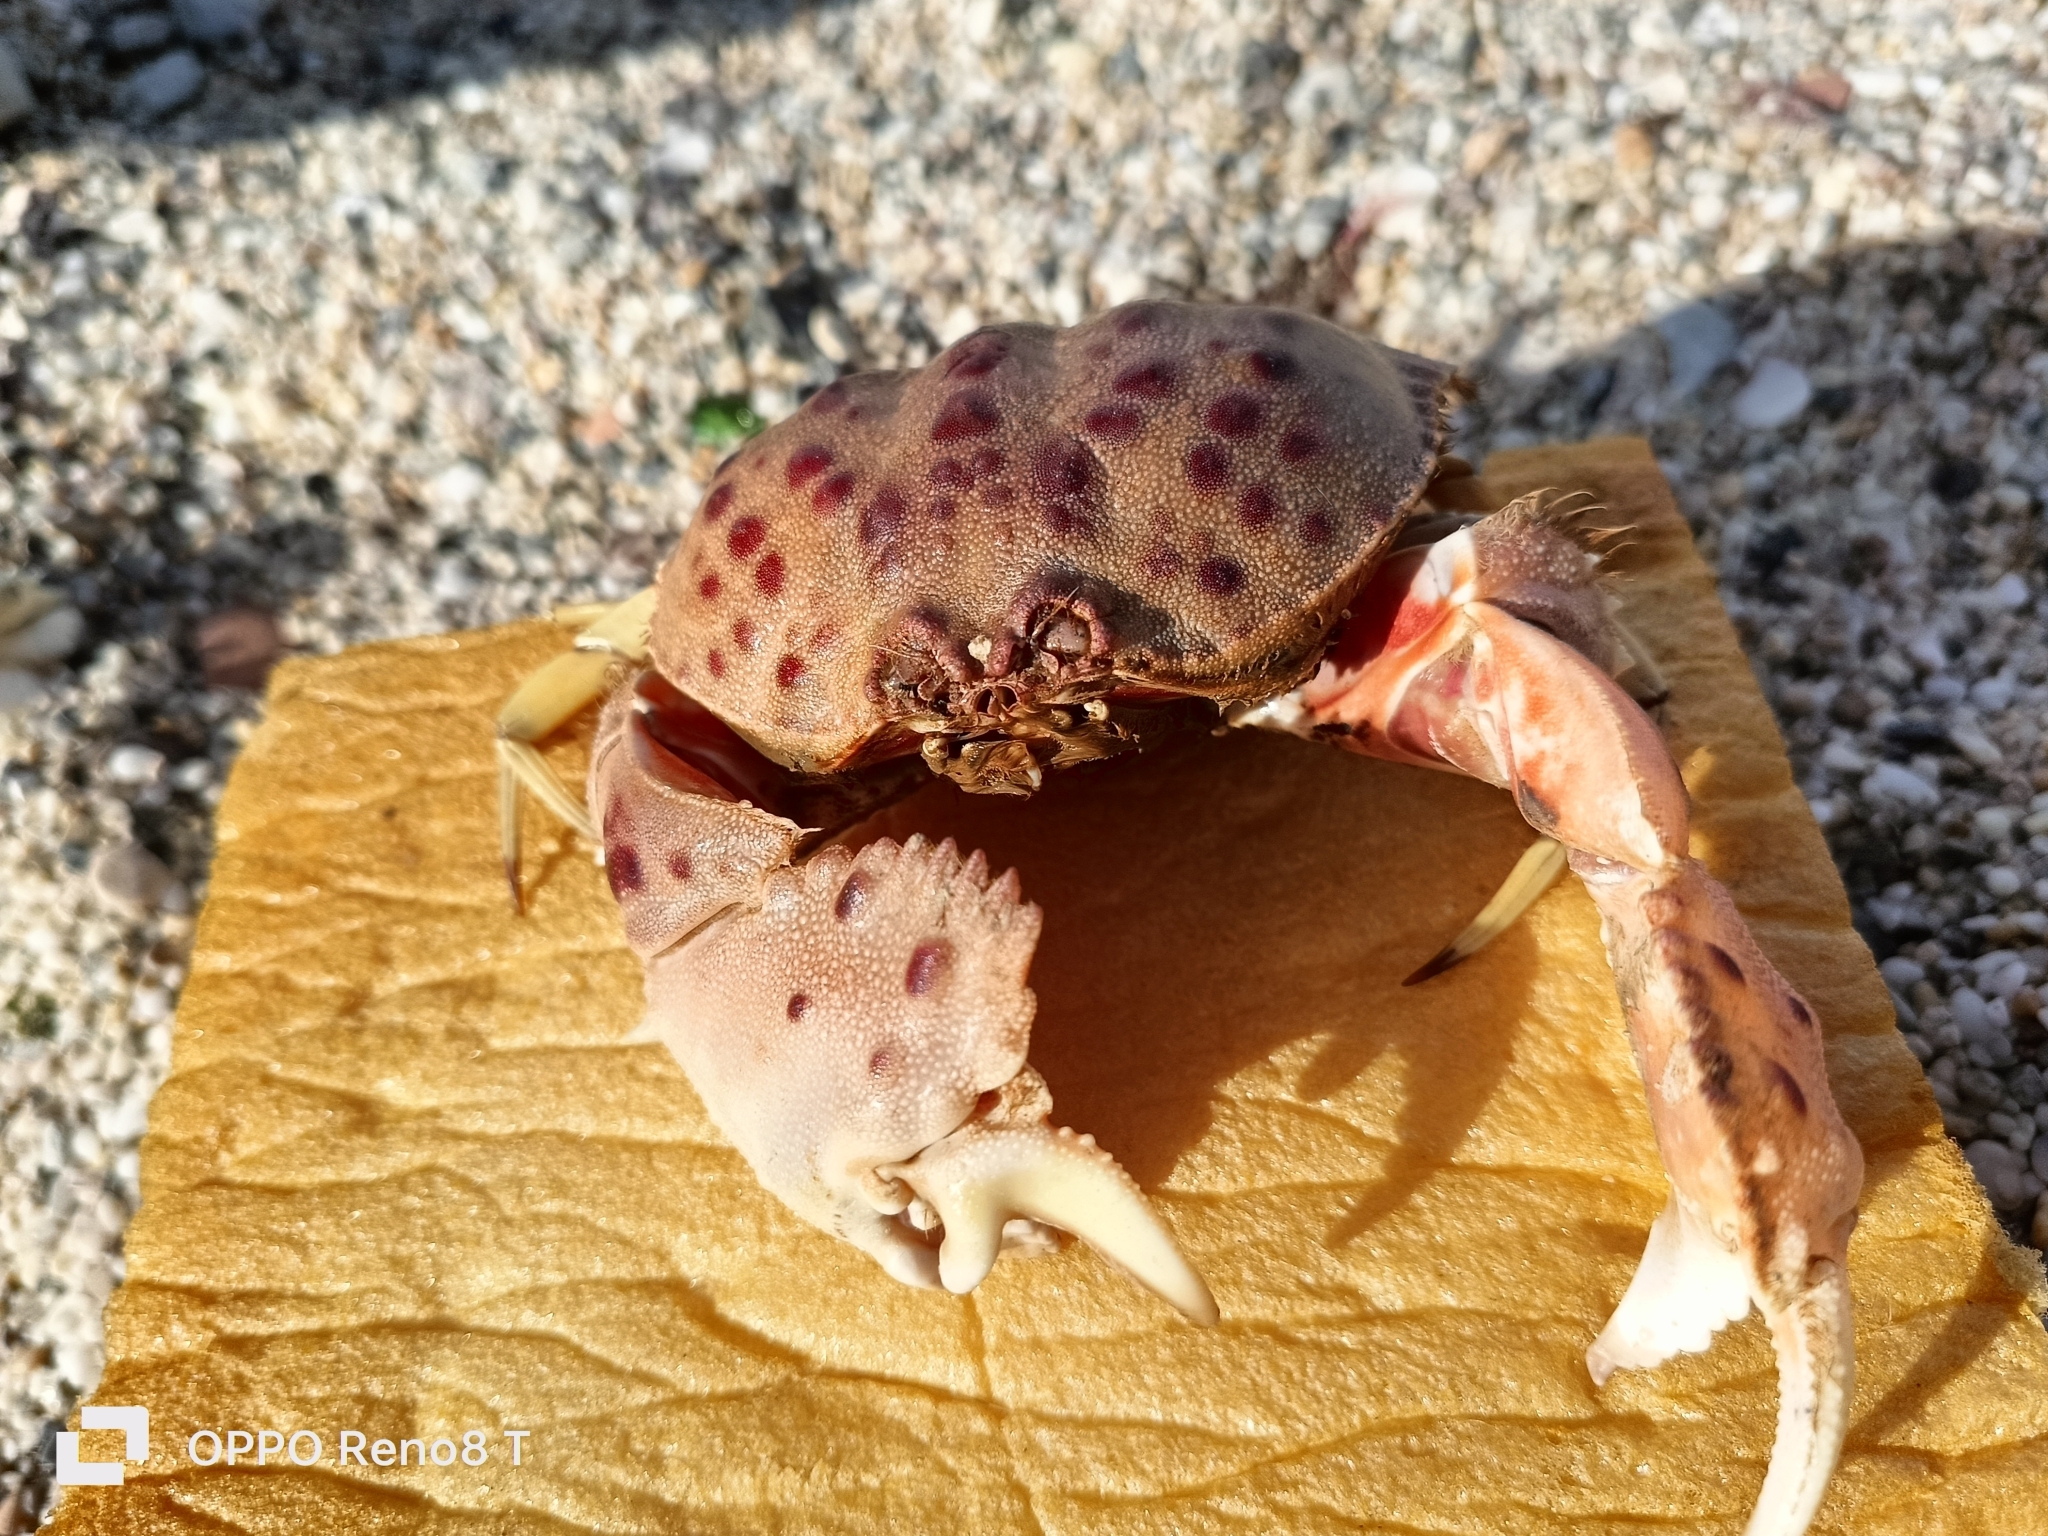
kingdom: Animalia
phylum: Arthropoda
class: Malacostraca
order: Decapoda
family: Calappidae
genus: Calappa
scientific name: Calappa granulata
